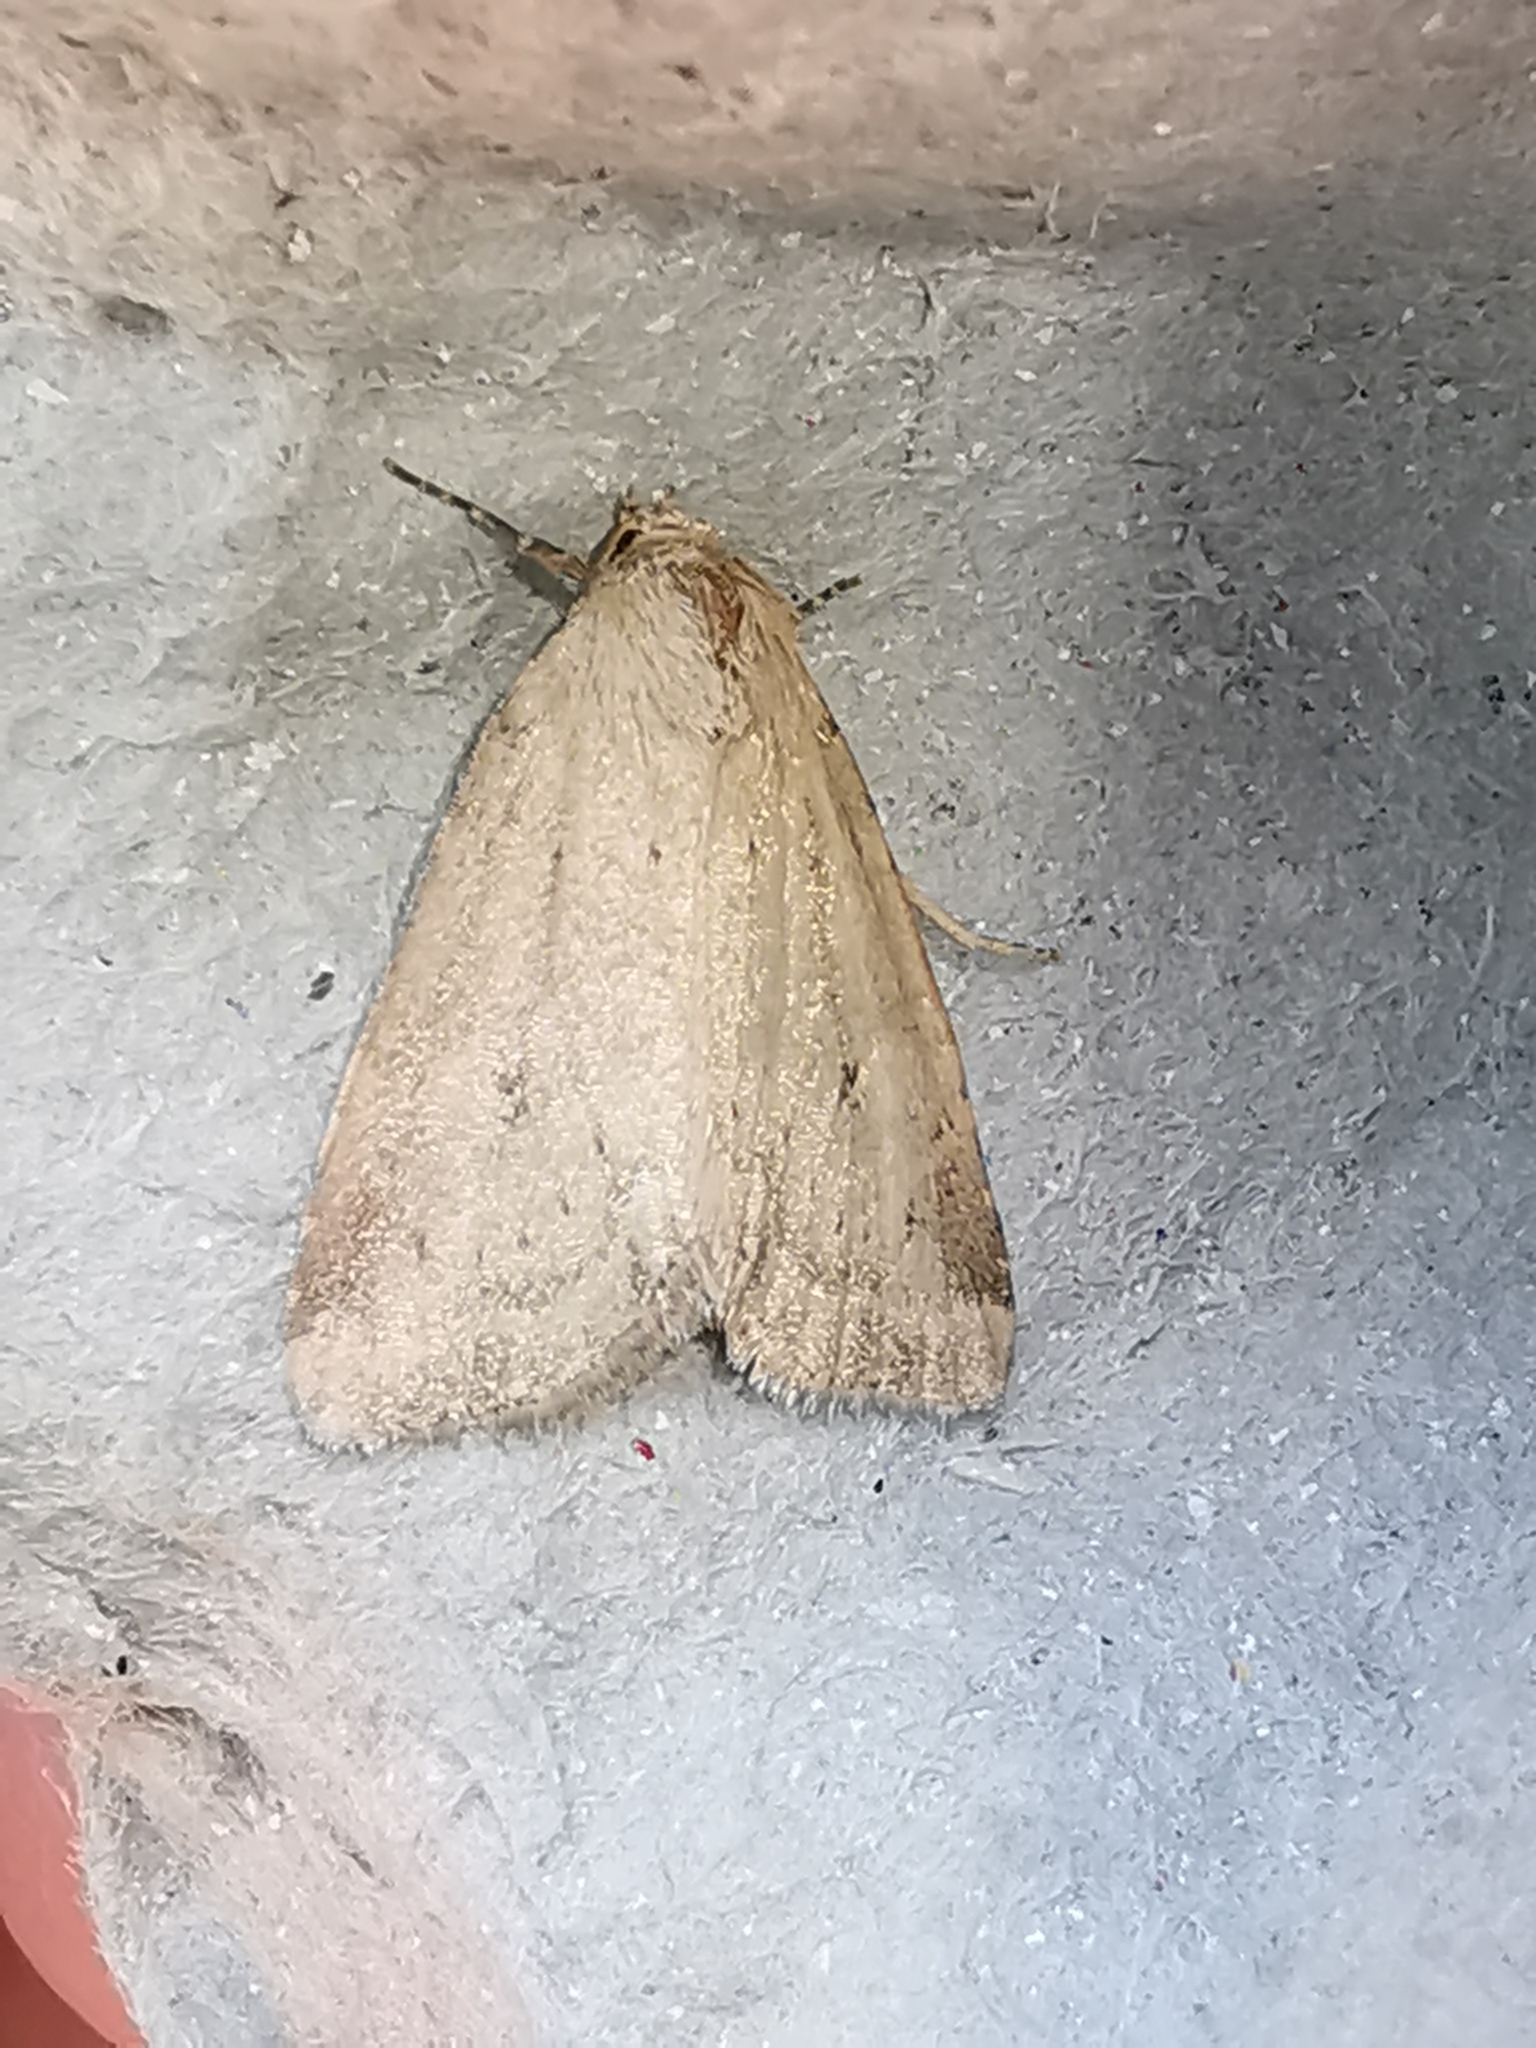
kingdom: Animalia
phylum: Arthropoda
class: Insecta
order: Lepidoptera
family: Noctuidae
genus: Photedes
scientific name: Photedes minima
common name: Small dotted buff
